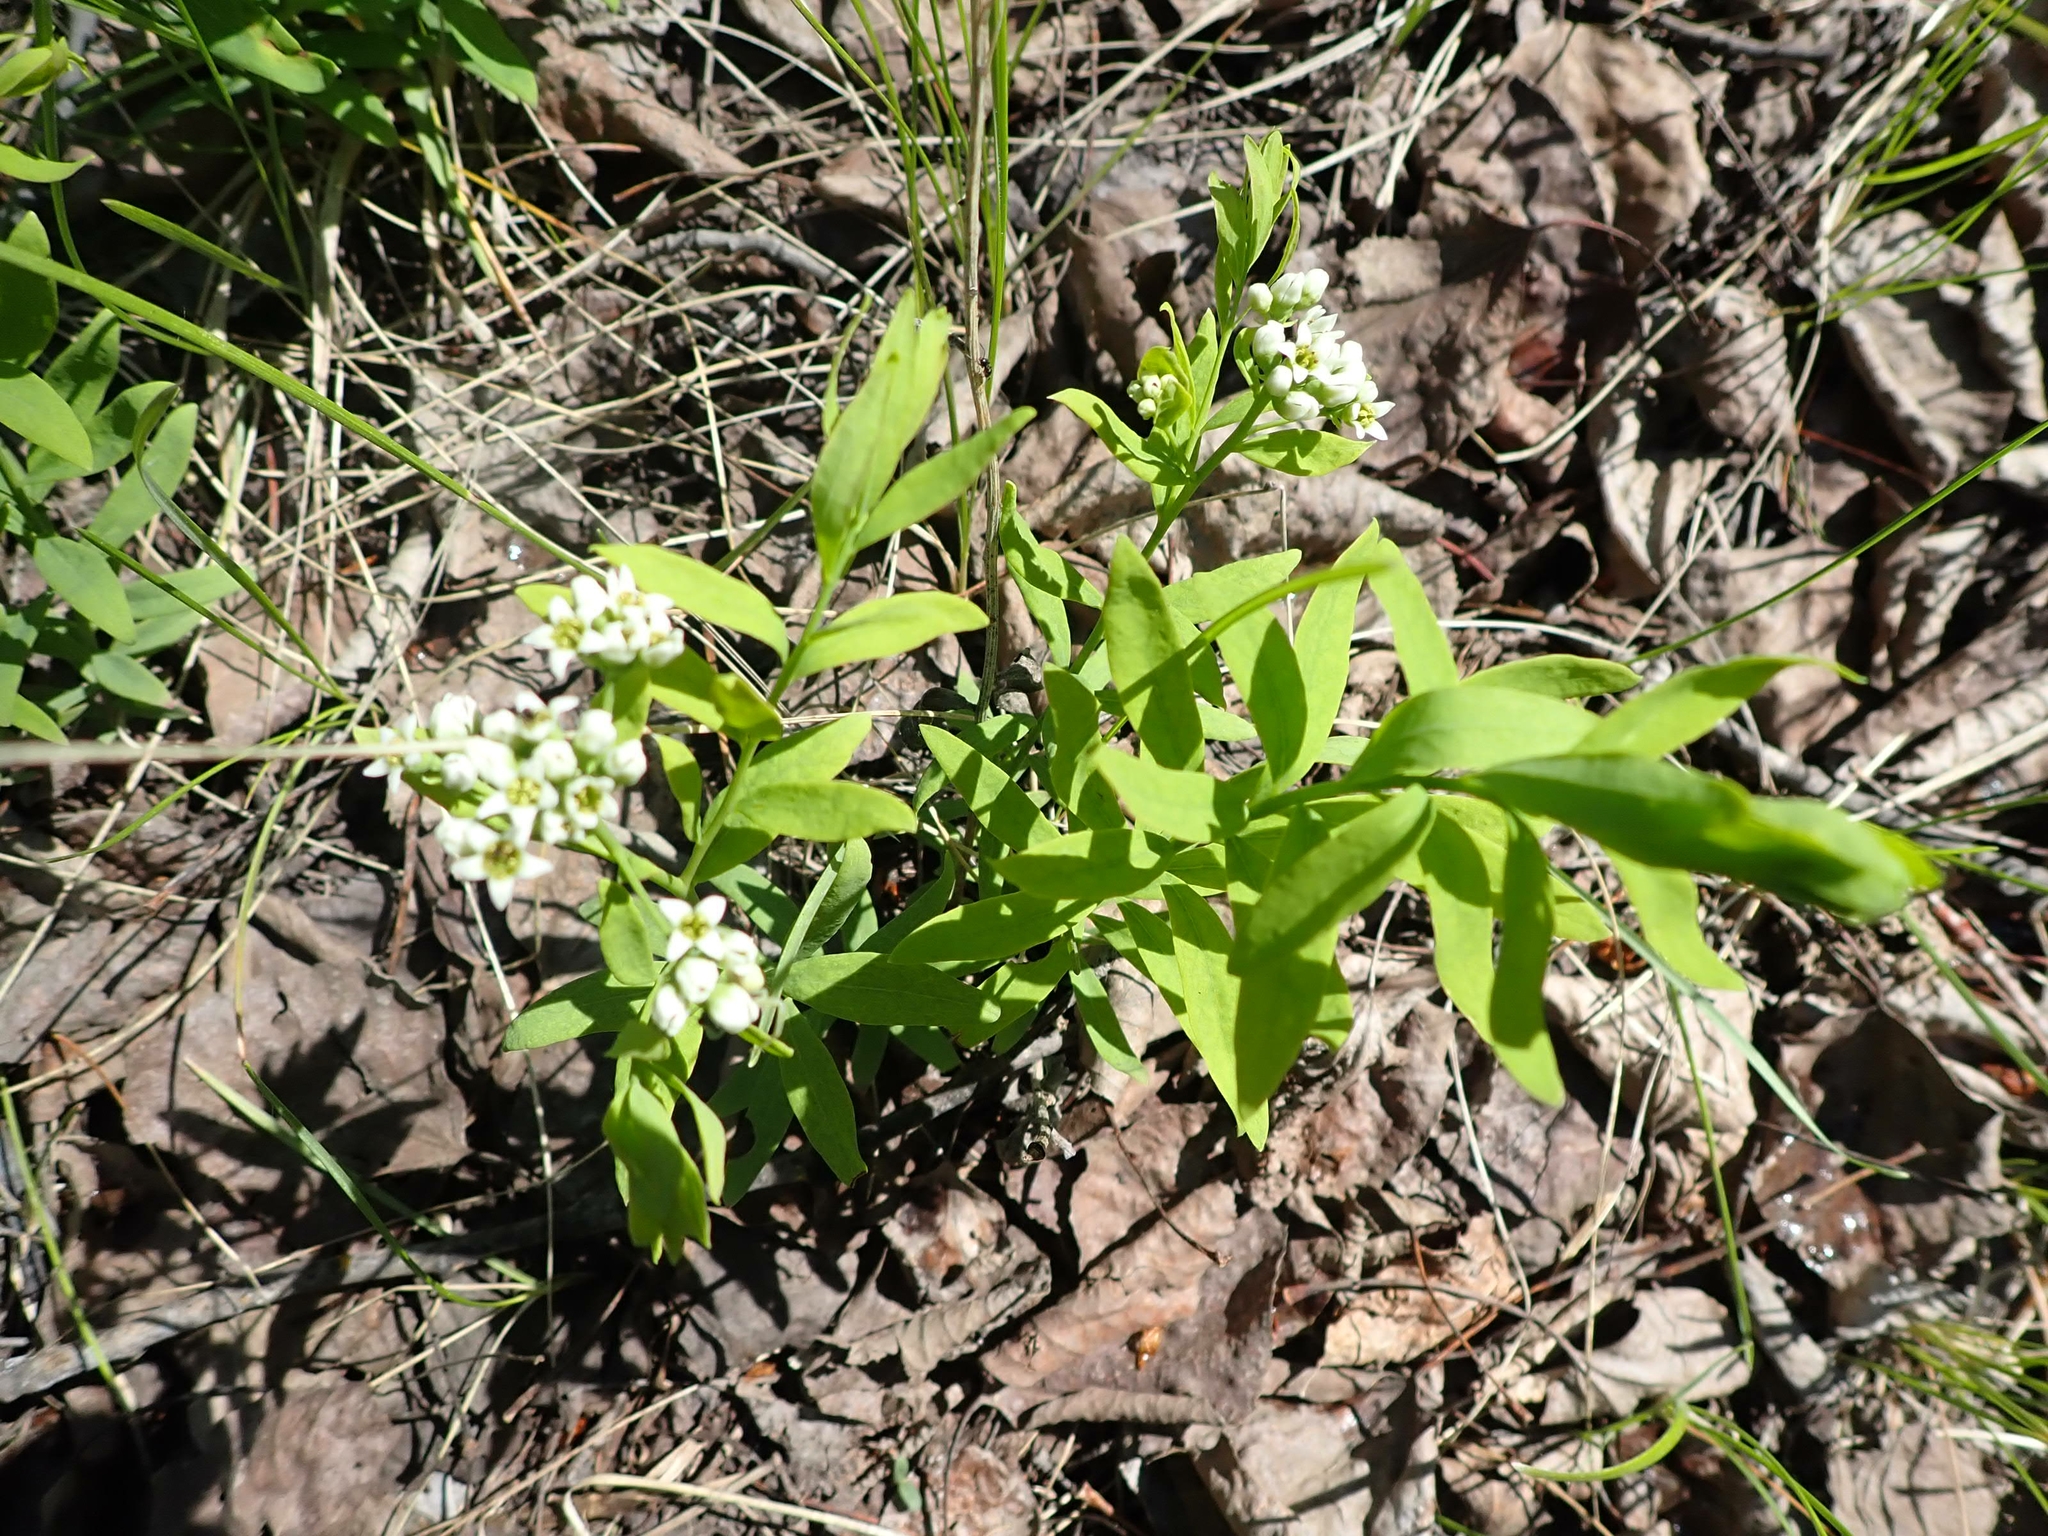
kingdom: Plantae
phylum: Tracheophyta
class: Magnoliopsida
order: Santalales
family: Comandraceae
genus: Comandra
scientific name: Comandra umbellata
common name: Bastard toadflax
